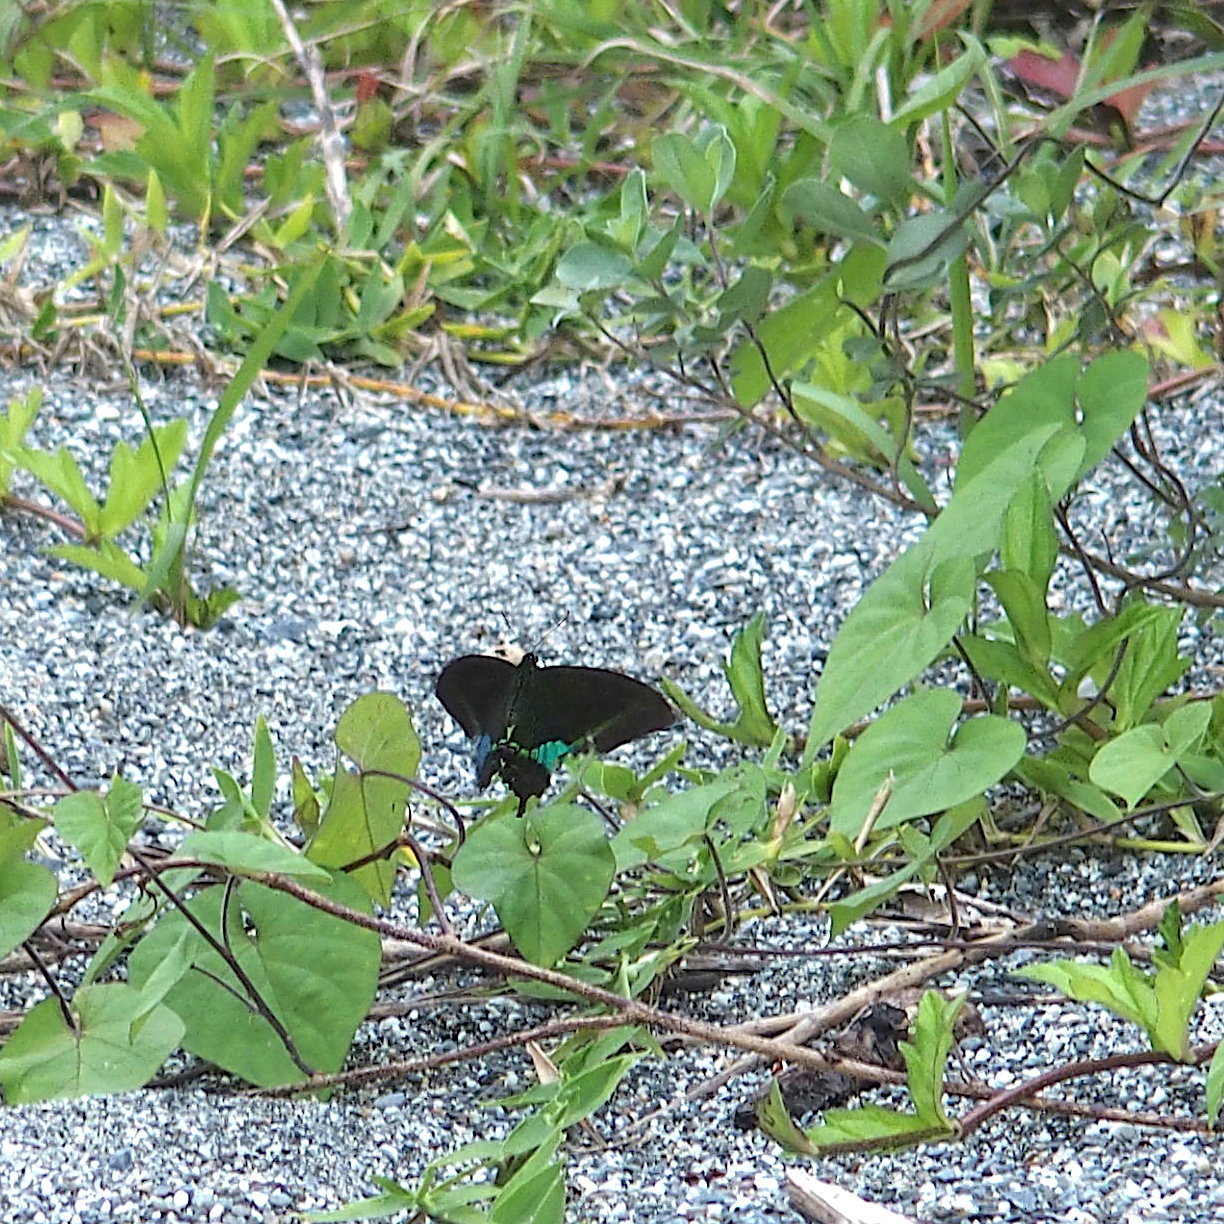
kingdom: Animalia
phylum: Arthropoda
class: Insecta
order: Lepidoptera
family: Papilionidae
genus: Papilio
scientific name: Papilio paris
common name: Paris peacock
